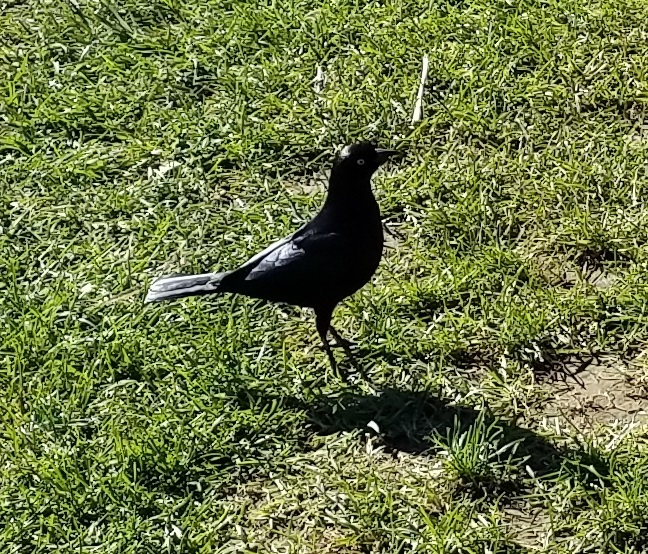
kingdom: Animalia
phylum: Chordata
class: Aves
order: Passeriformes
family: Icteridae
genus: Euphagus
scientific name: Euphagus cyanocephalus
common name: Brewer's blackbird
